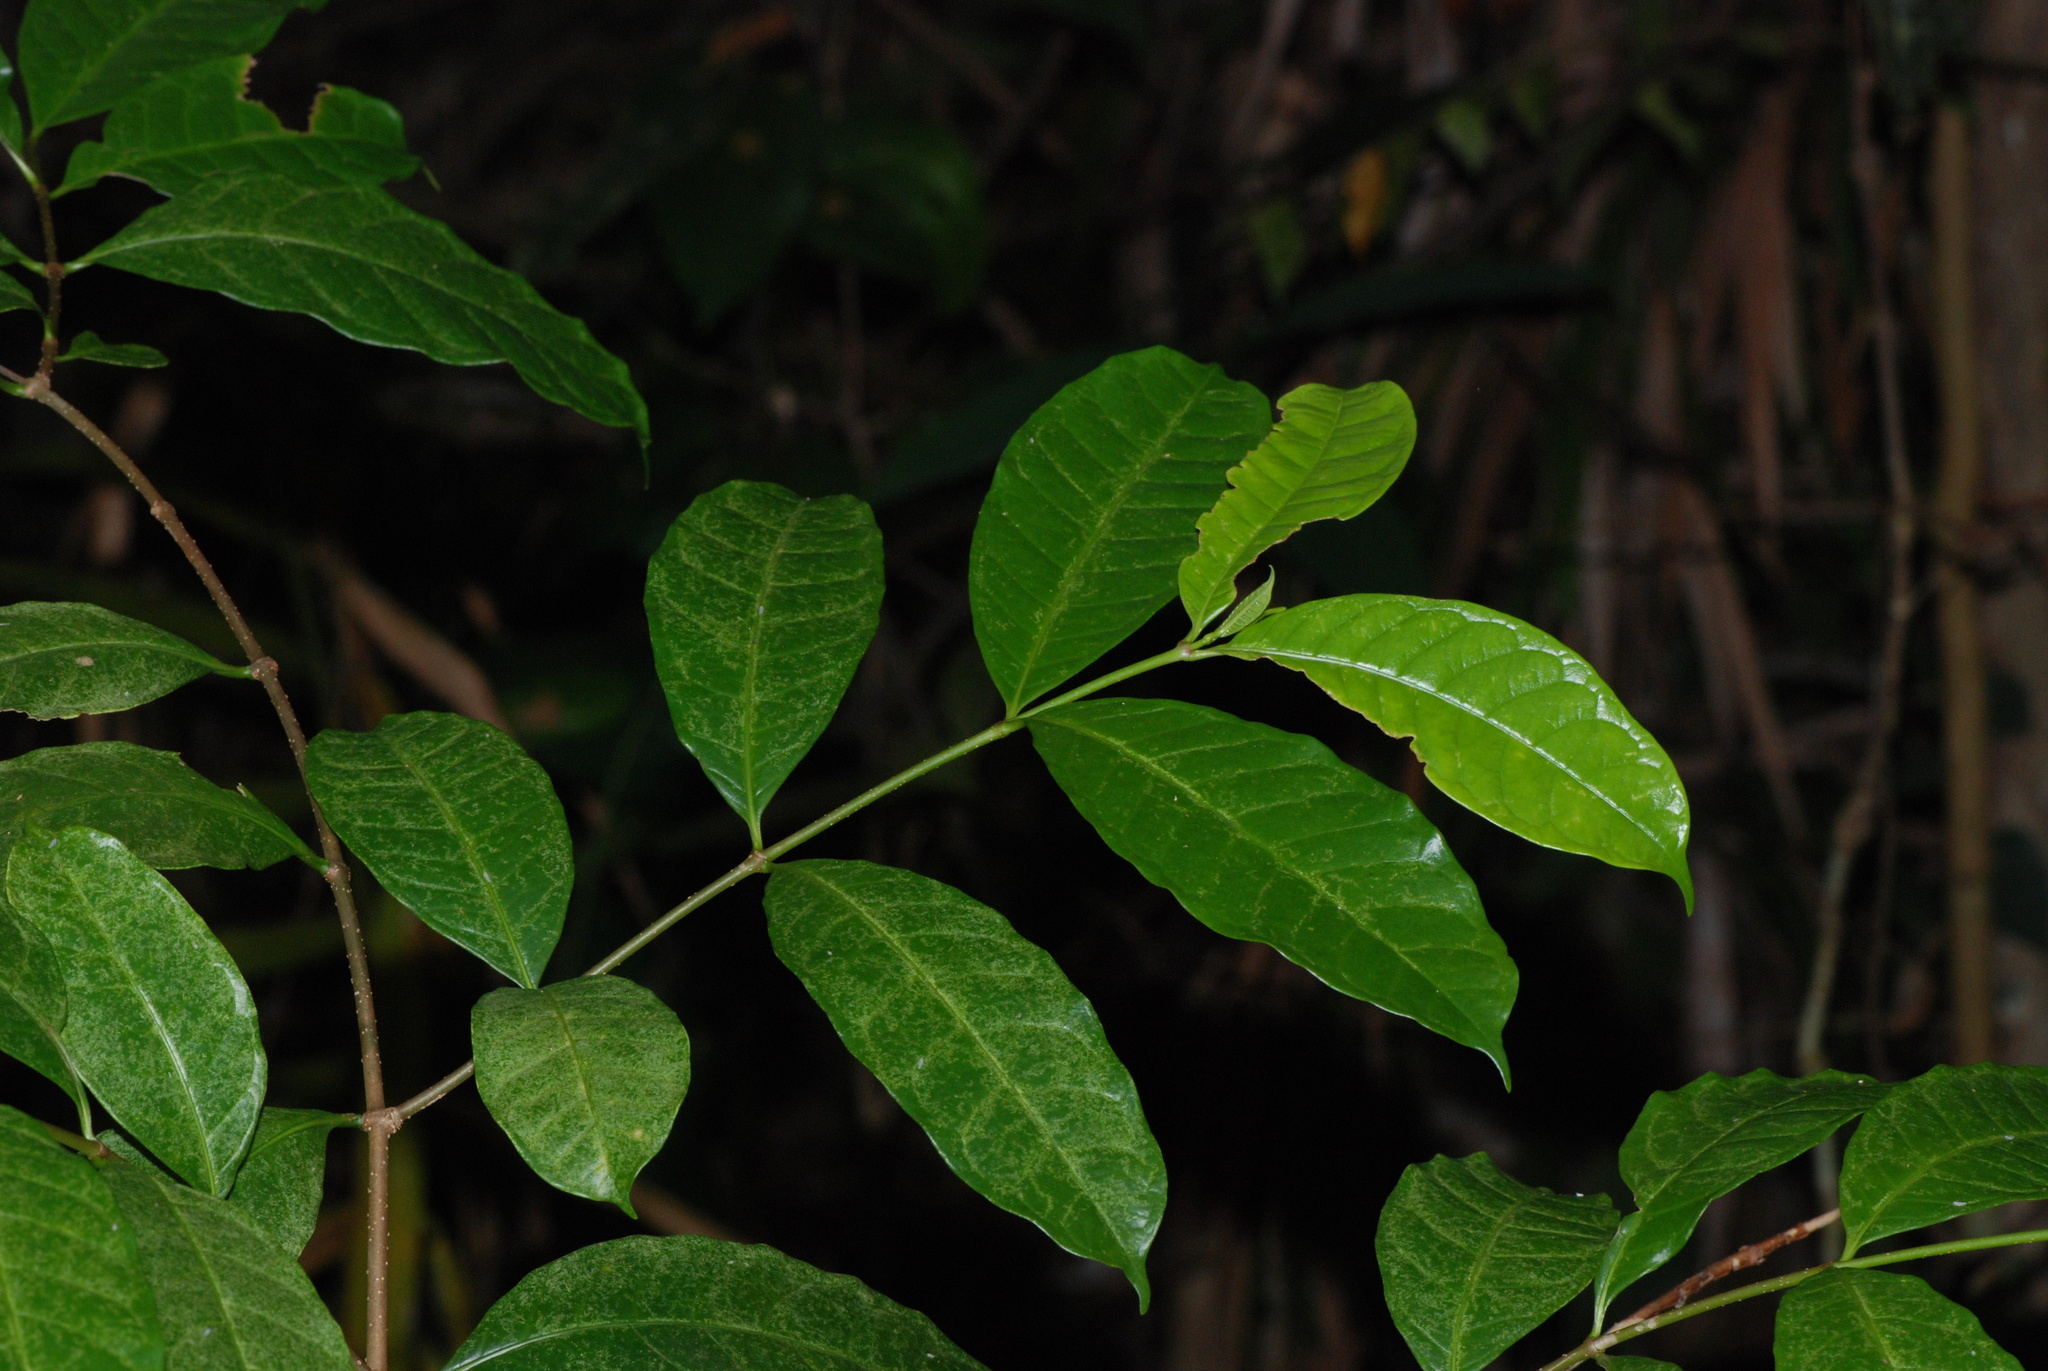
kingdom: Plantae
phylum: Tracheophyta
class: Magnoliopsida
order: Gentianales
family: Apocynaceae
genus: Strophanthus
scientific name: Strophanthus caudatus
